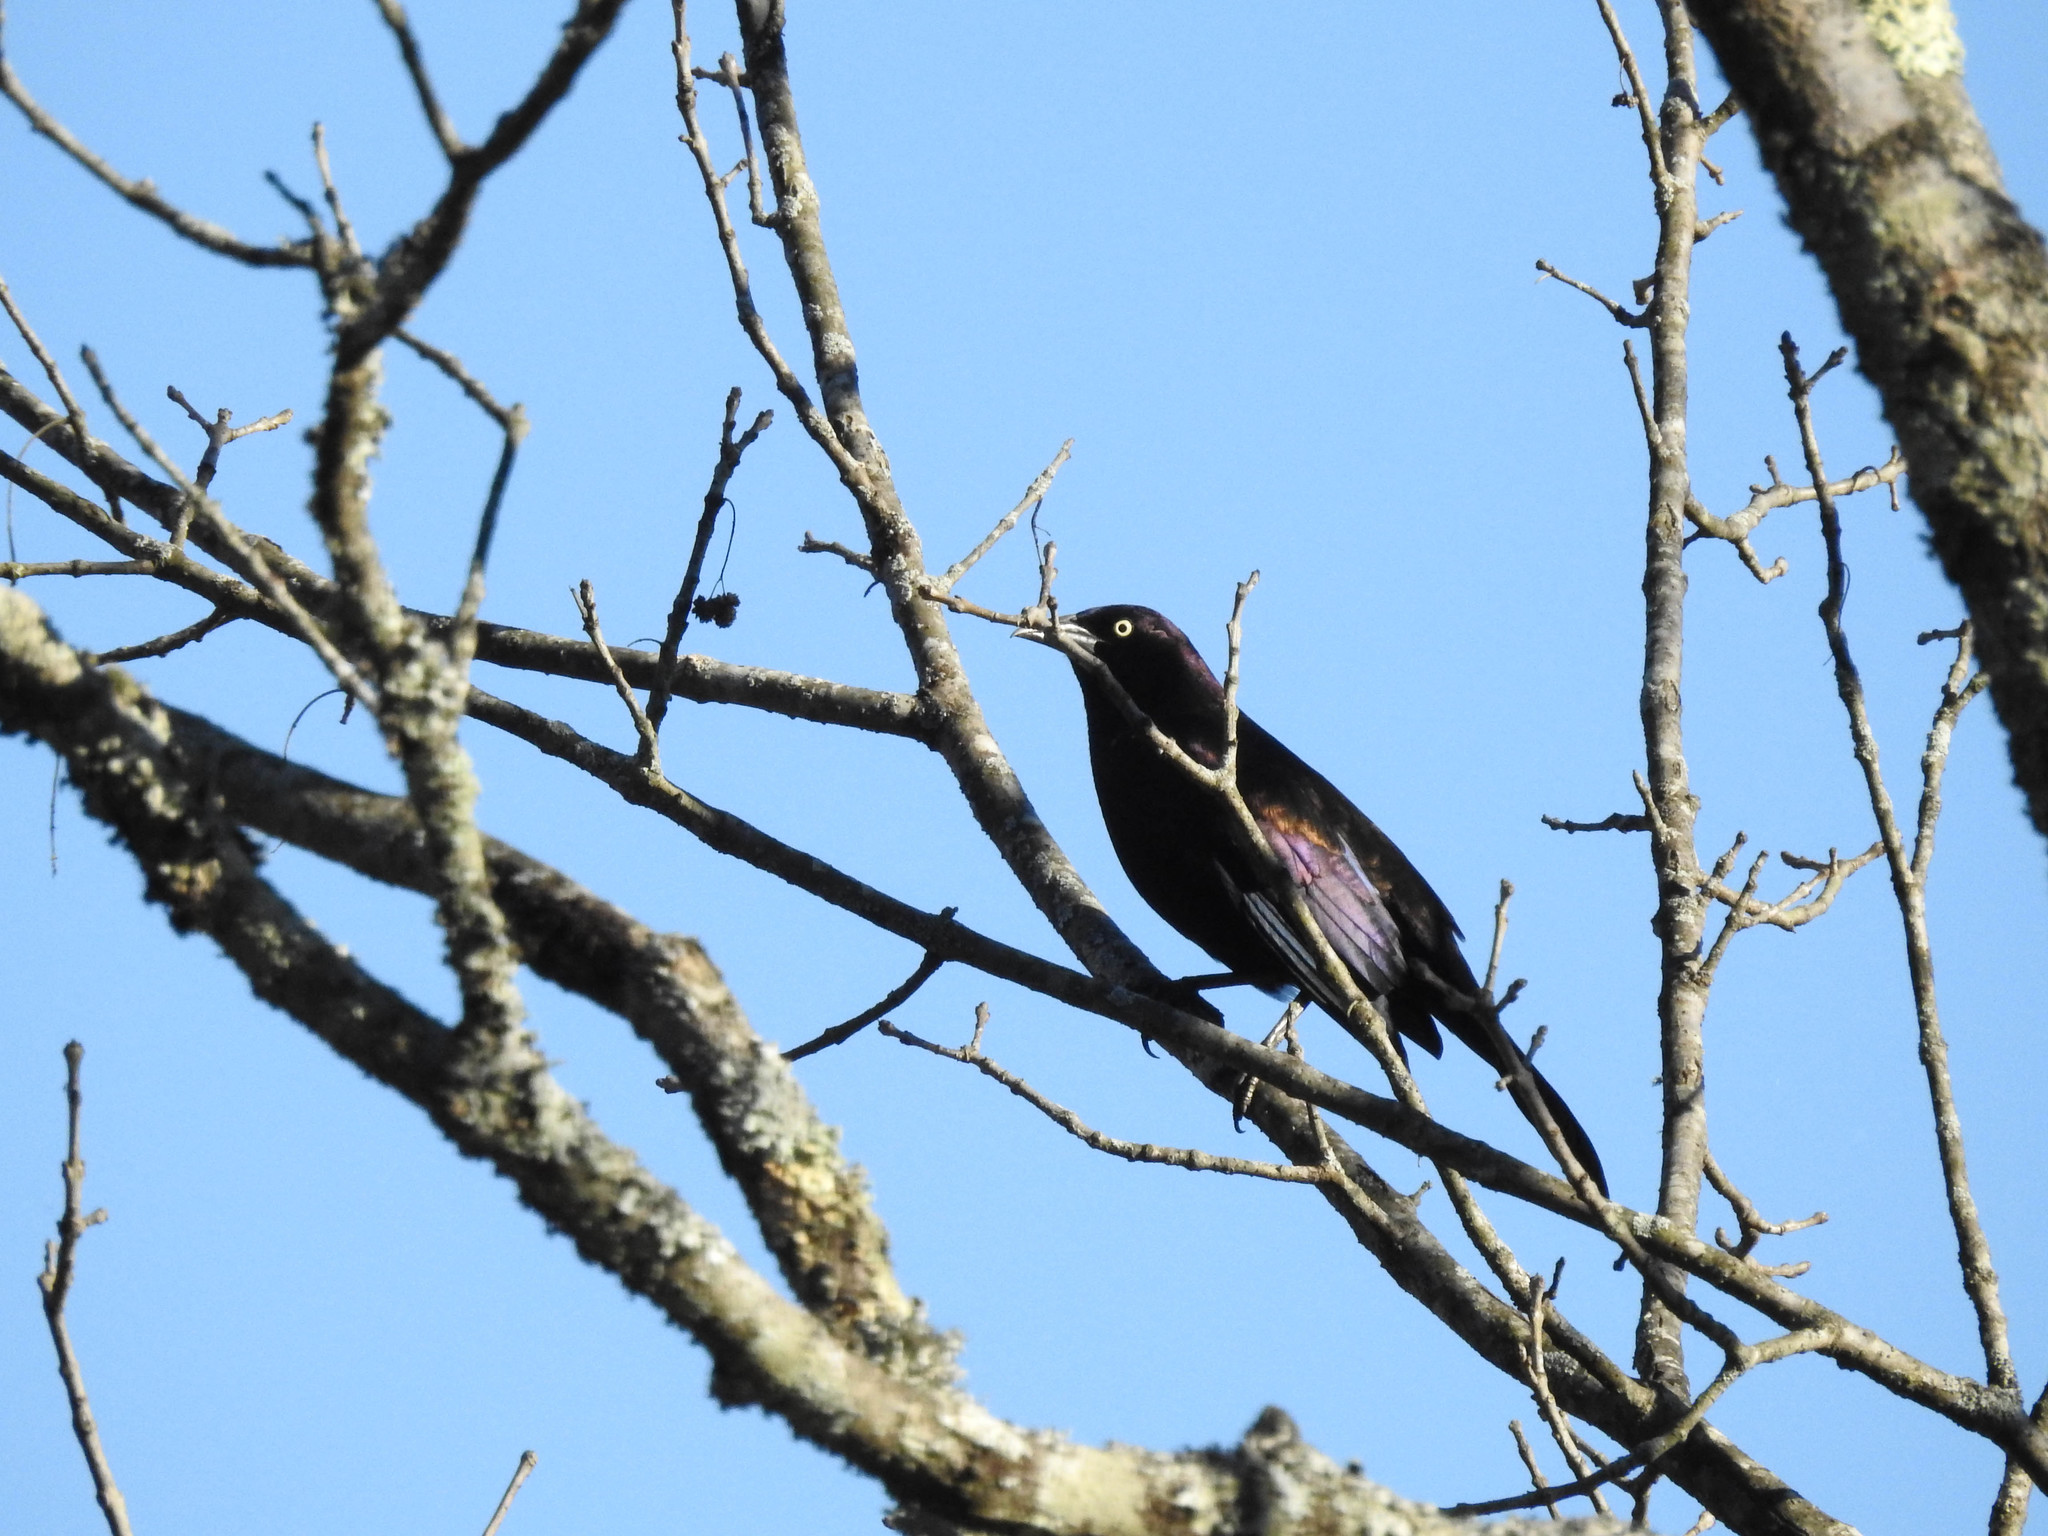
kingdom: Animalia
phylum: Chordata
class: Aves
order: Passeriformes
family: Icteridae
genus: Quiscalus
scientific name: Quiscalus quiscula
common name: Common grackle
